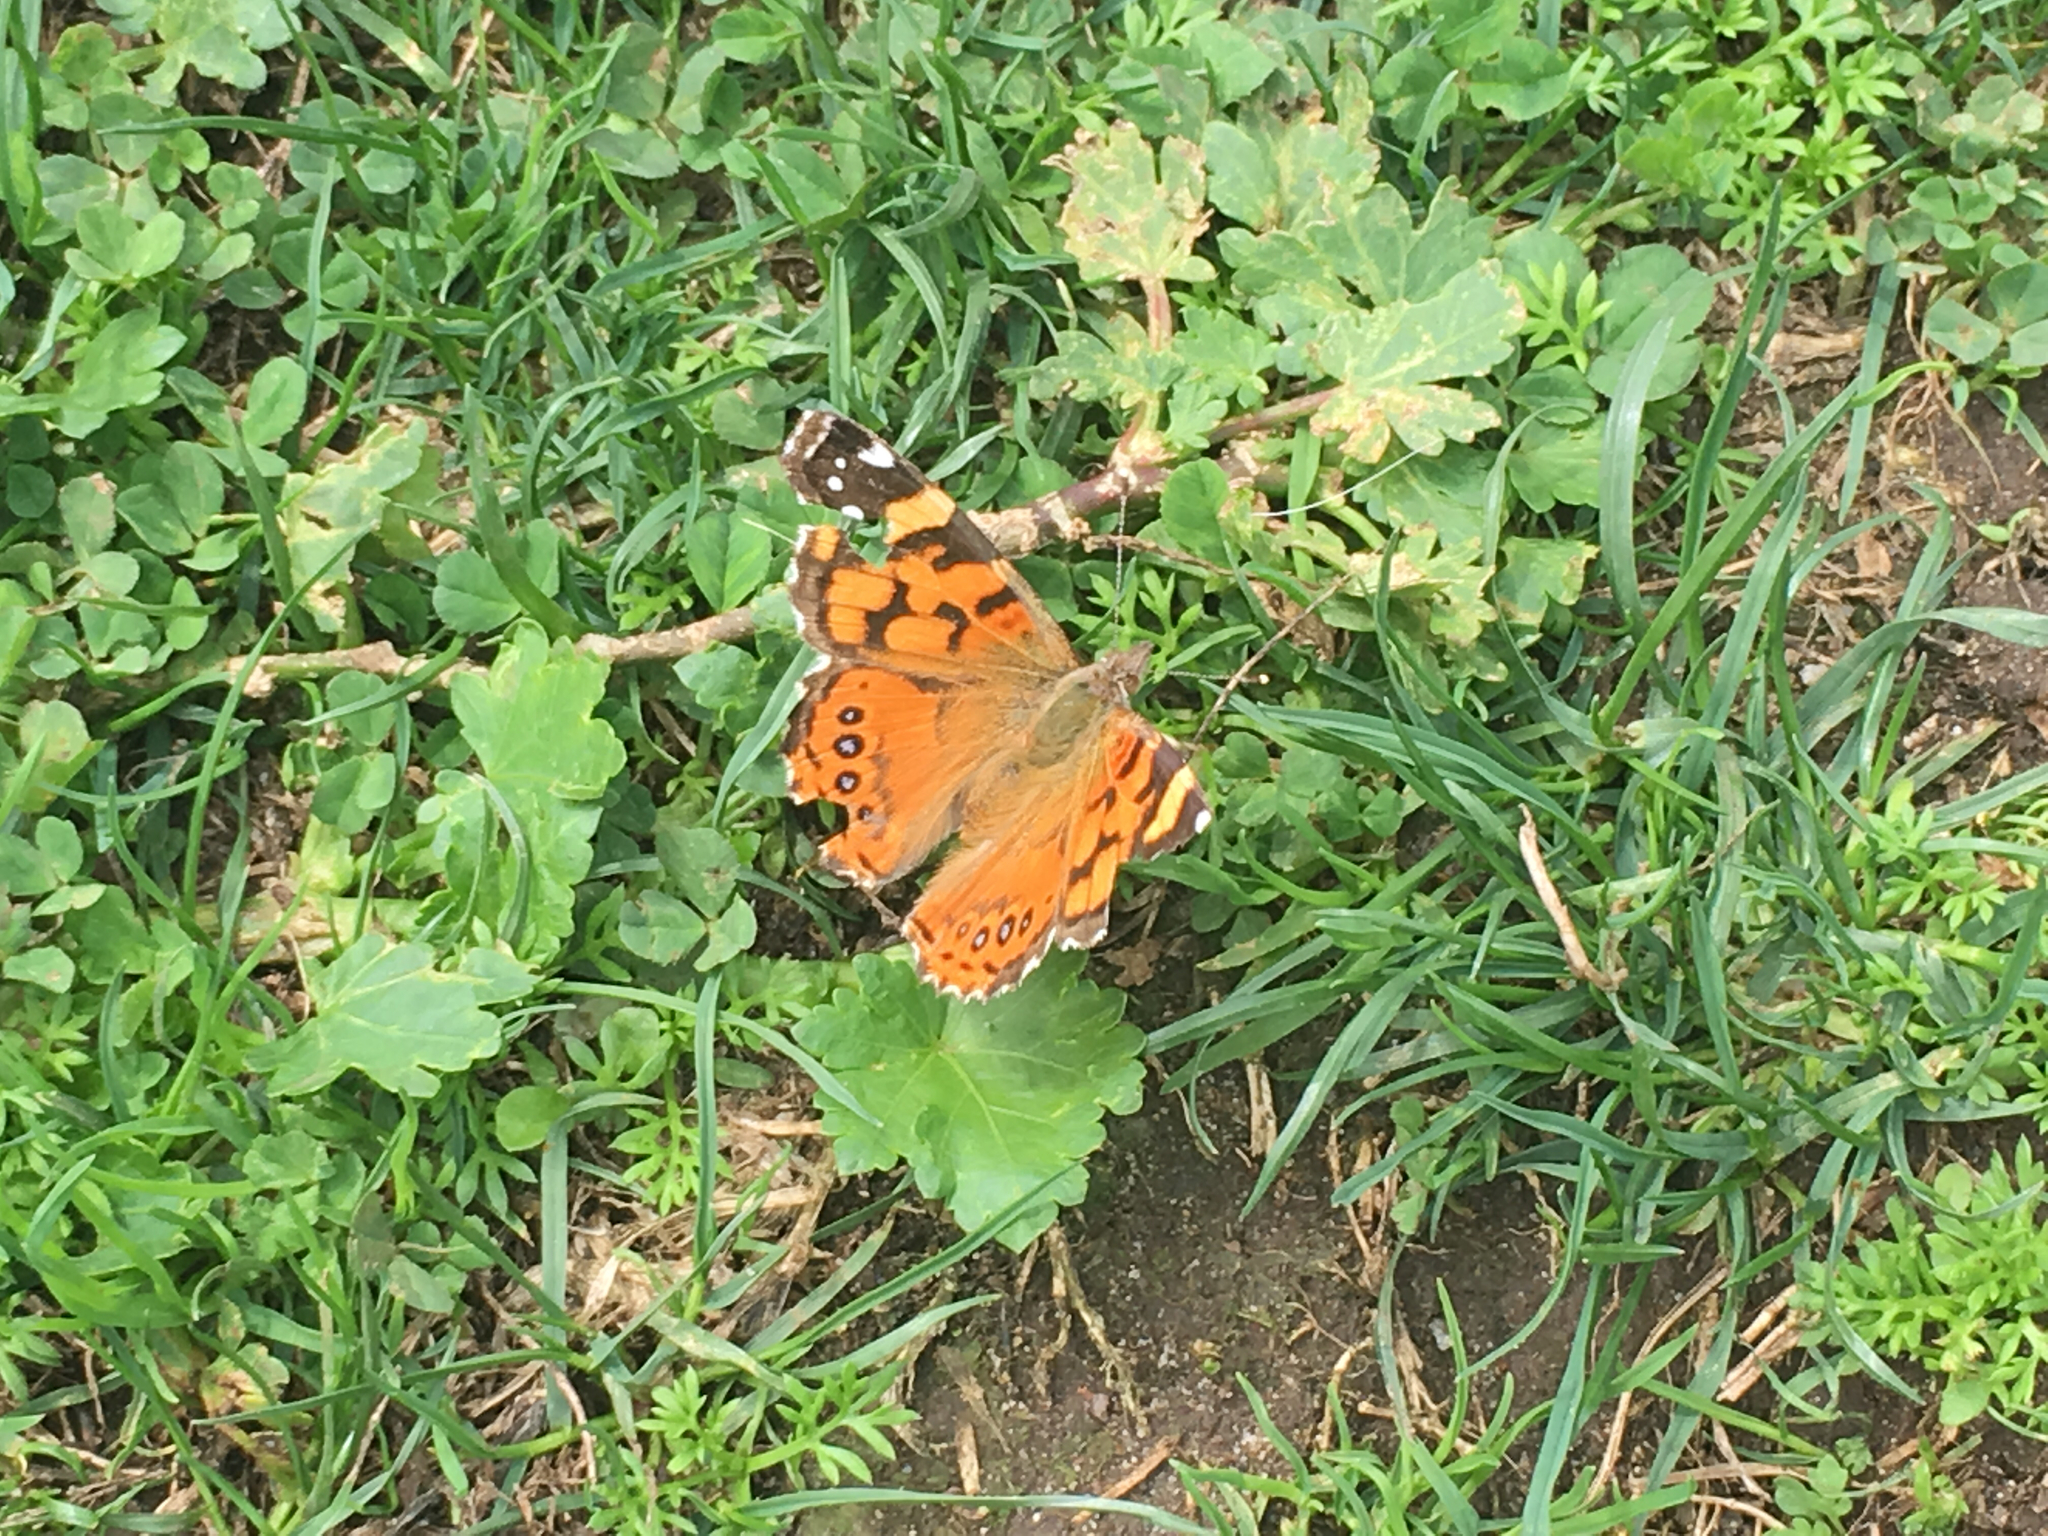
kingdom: Animalia
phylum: Arthropoda
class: Insecta
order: Lepidoptera
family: Nymphalidae
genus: Vanessa
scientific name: Vanessa annabella
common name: West coast lady
